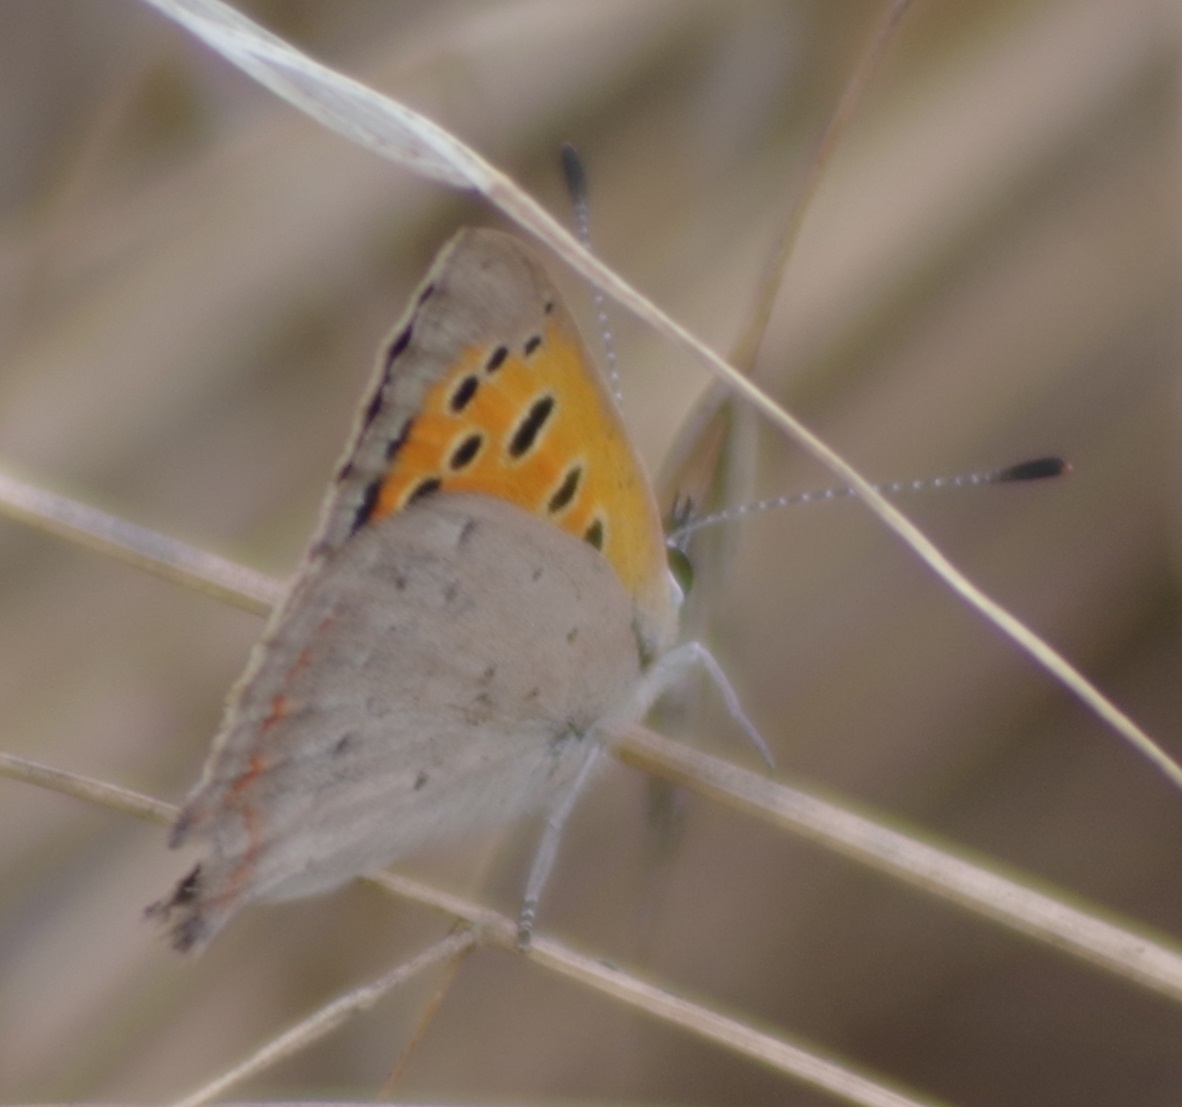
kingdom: Animalia
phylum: Arthropoda
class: Insecta
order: Lepidoptera
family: Lycaenidae
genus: Lycaena
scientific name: Lycaena phlaeas
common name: Small copper
